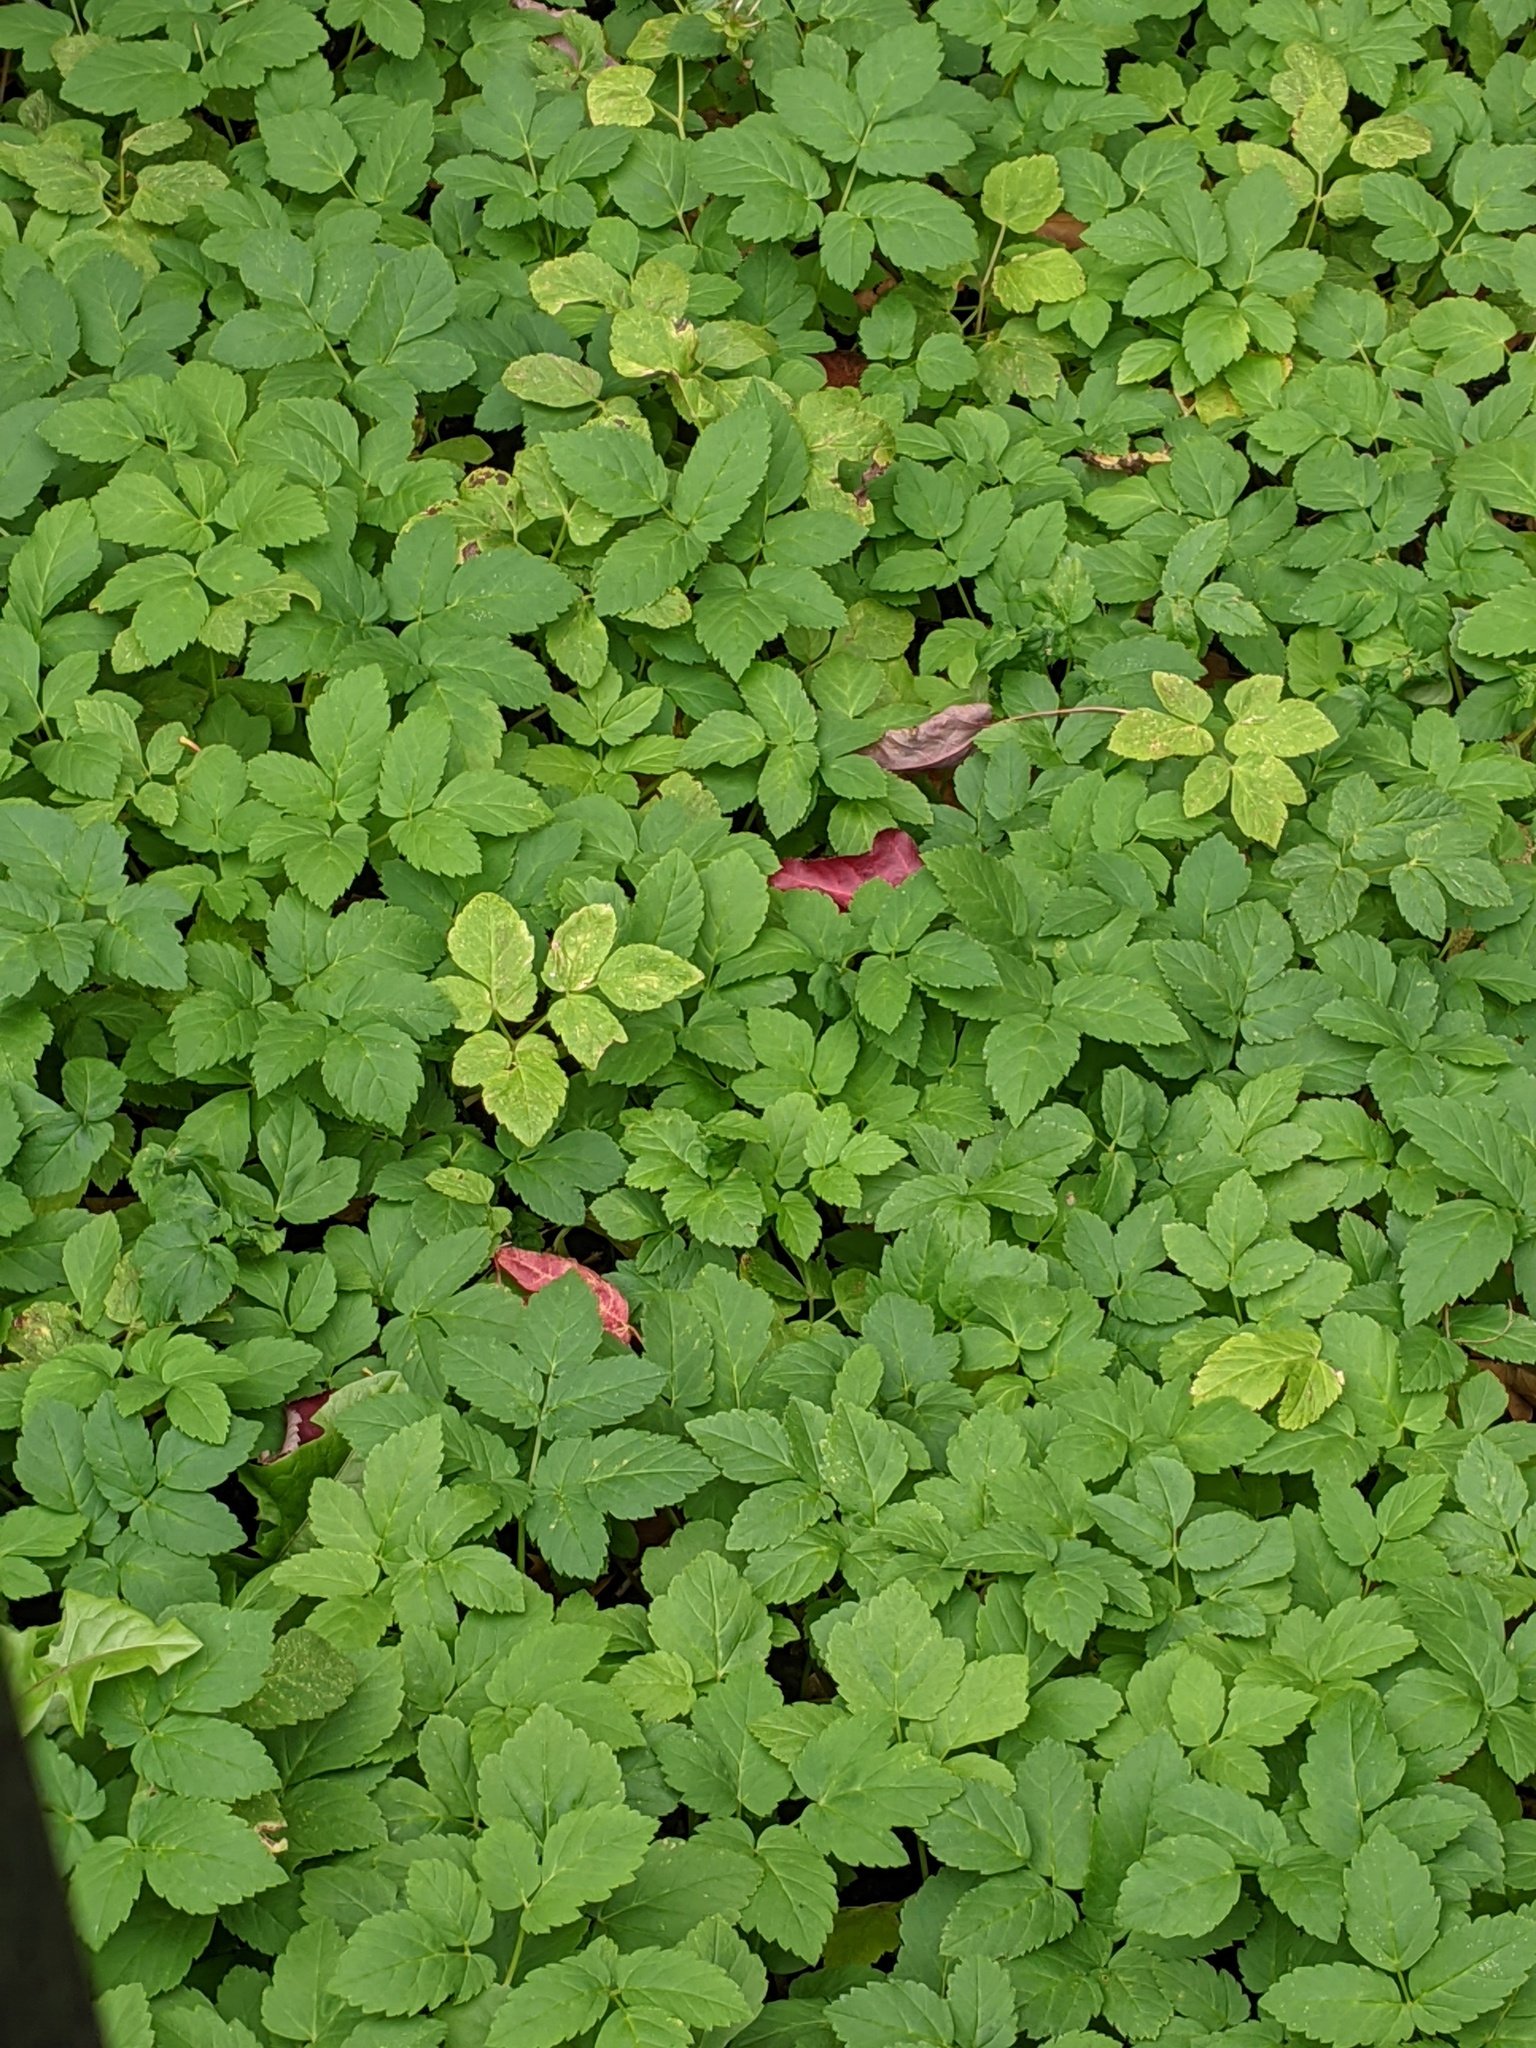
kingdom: Plantae
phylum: Tracheophyta
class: Magnoliopsida
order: Apiales
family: Apiaceae
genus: Aegopodium
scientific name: Aegopodium podagraria
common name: Ground-elder
